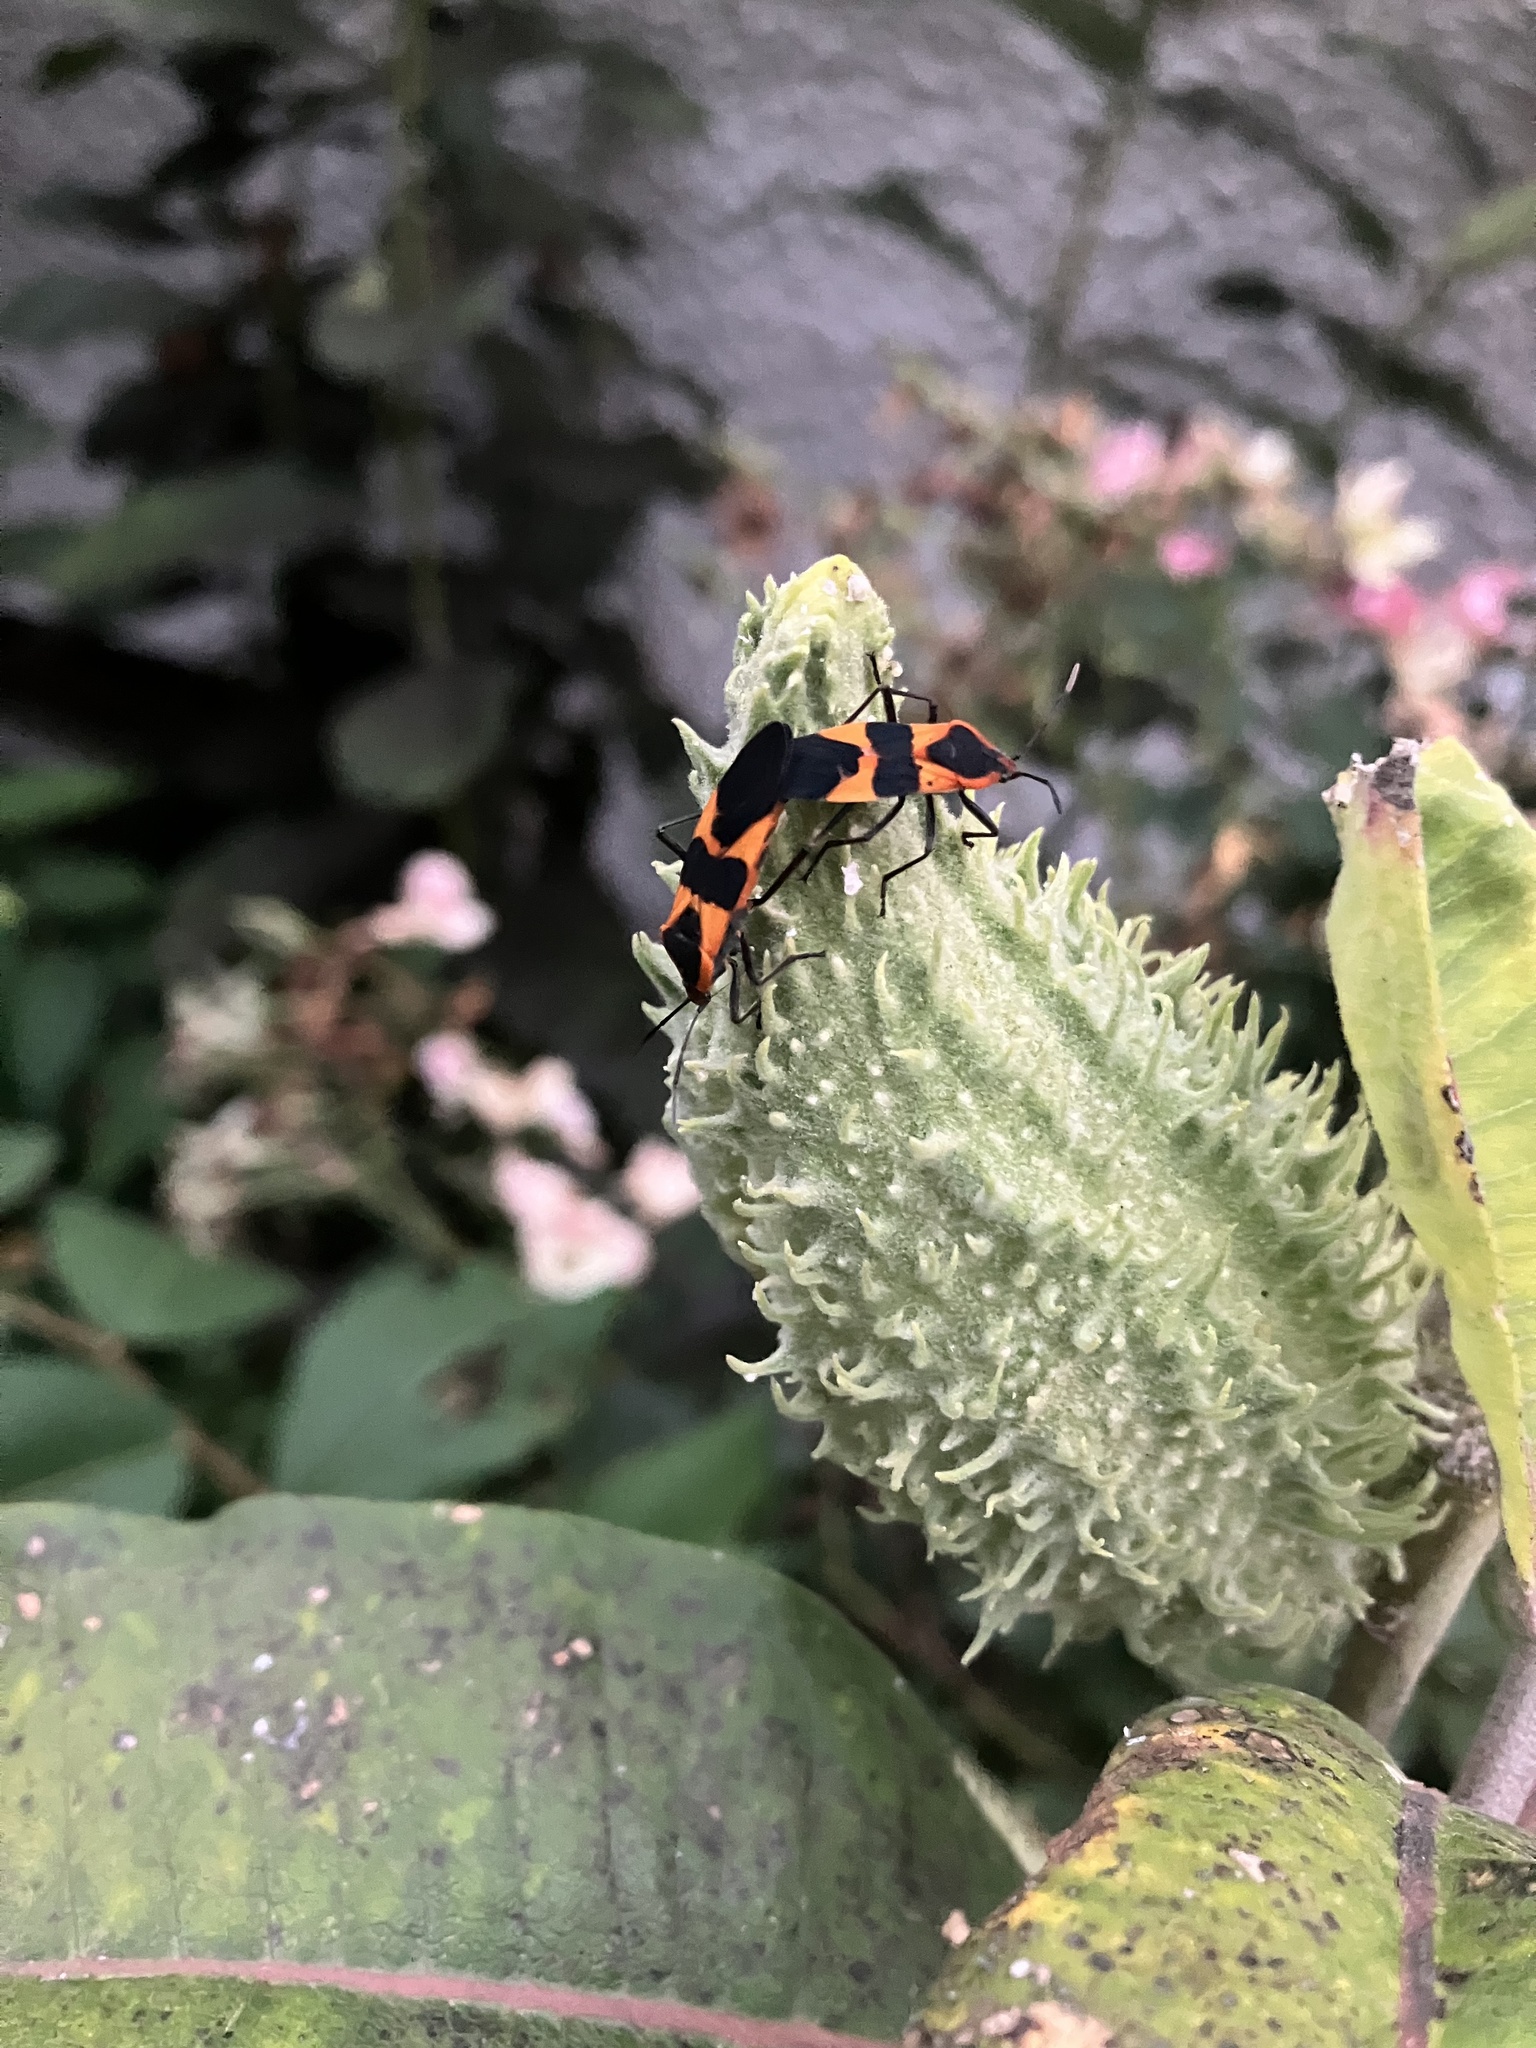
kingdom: Animalia
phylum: Arthropoda
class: Insecta
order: Hemiptera
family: Lygaeidae
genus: Oncopeltus
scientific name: Oncopeltus fasciatus
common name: Large milkweed bug
